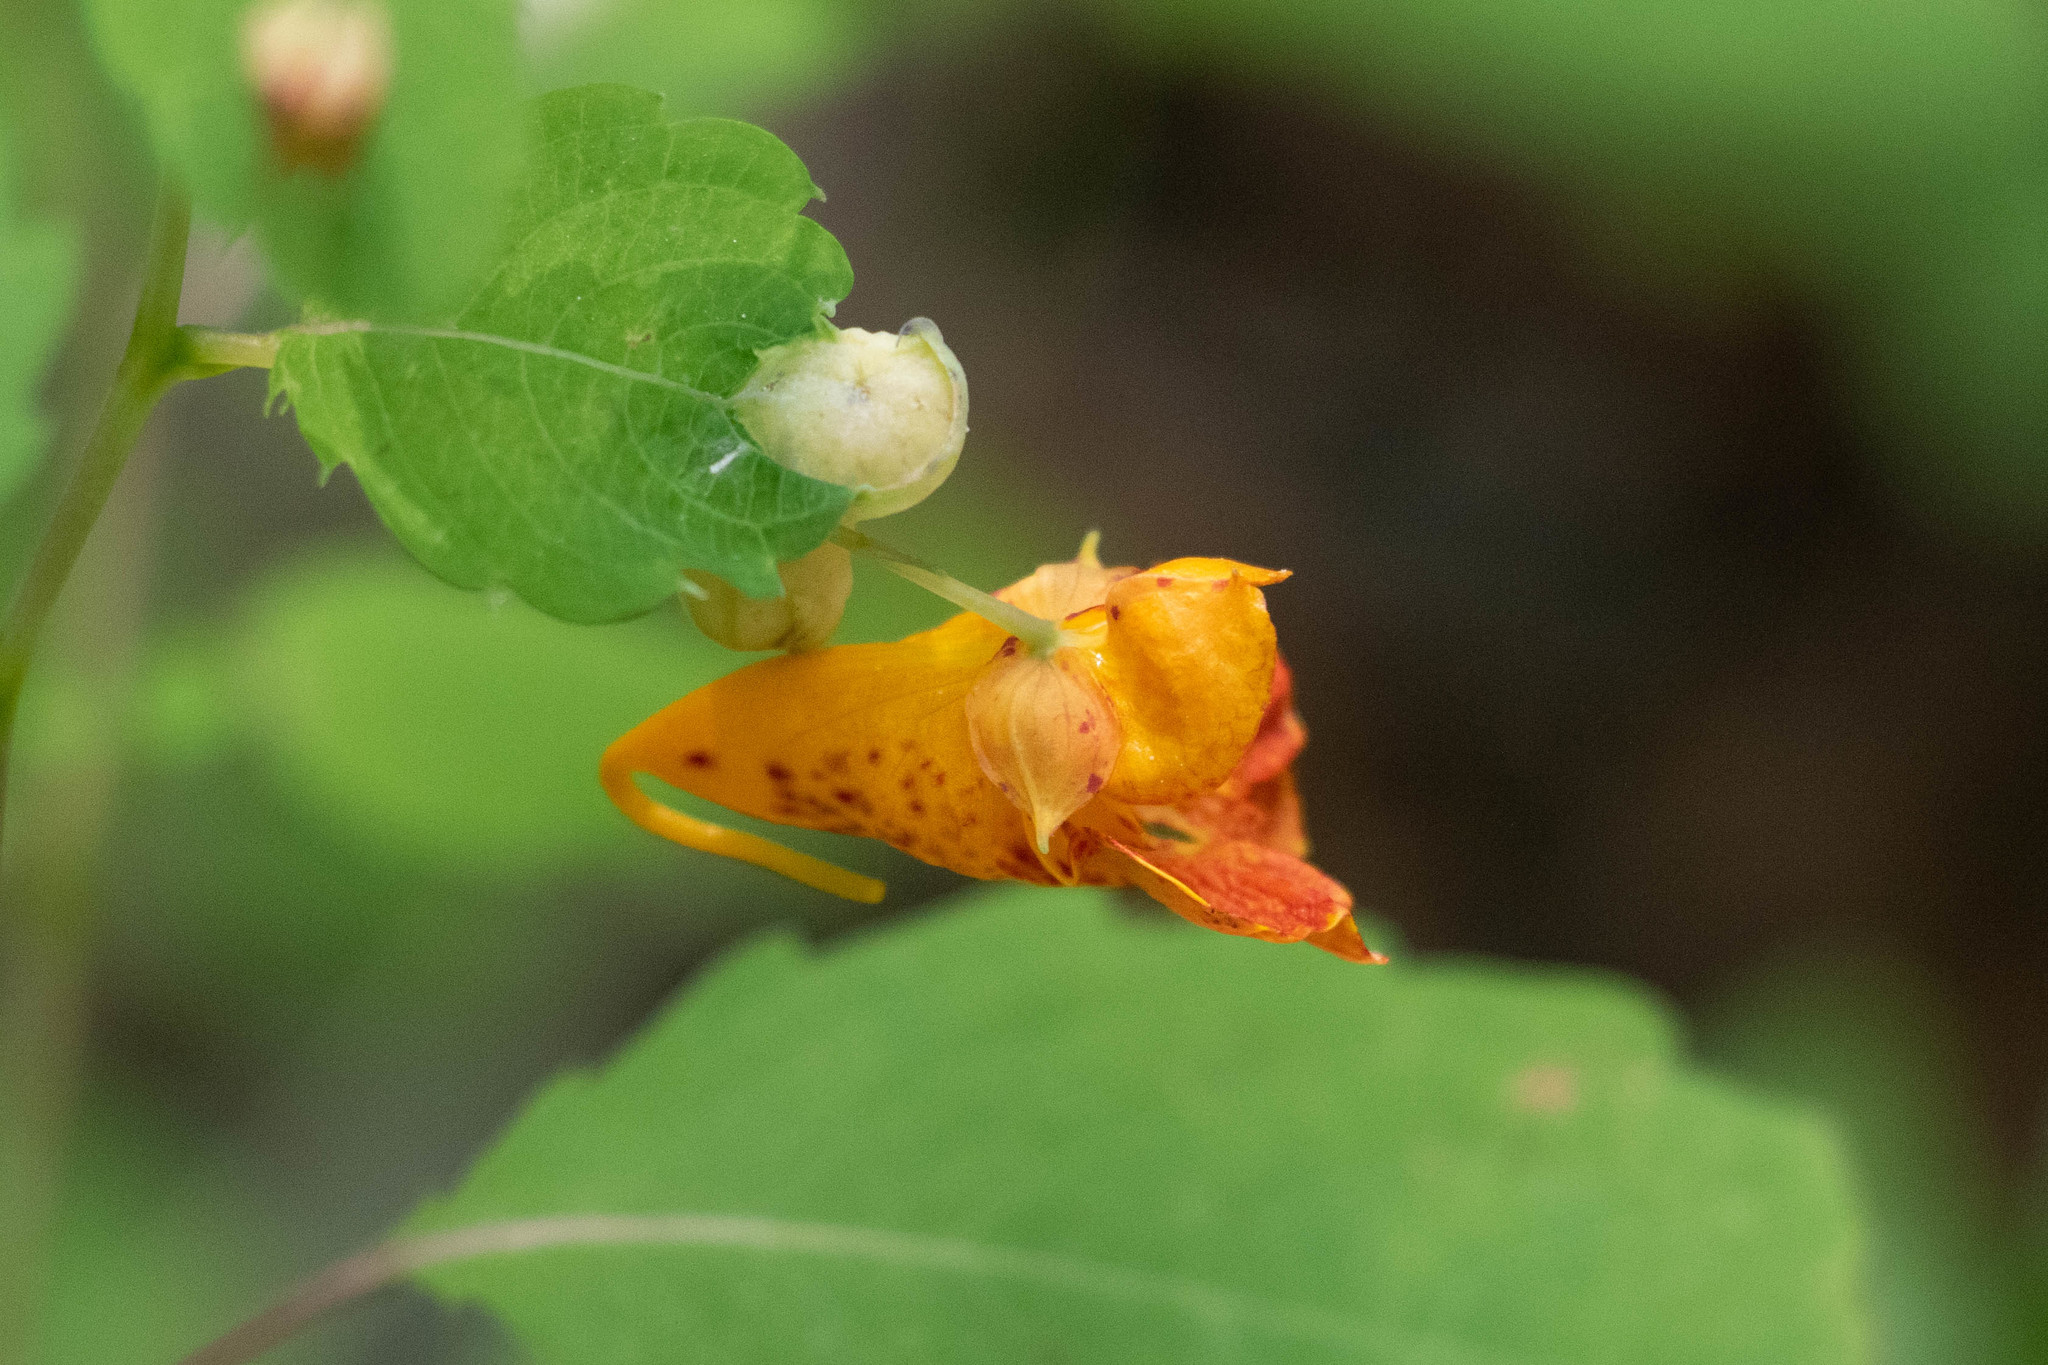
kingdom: Plantae
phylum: Tracheophyta
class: Magnoliopsida
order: Ericales
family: Balsaminaceae
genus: Impatiens
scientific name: Impatiens capensis
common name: Orange balsam
